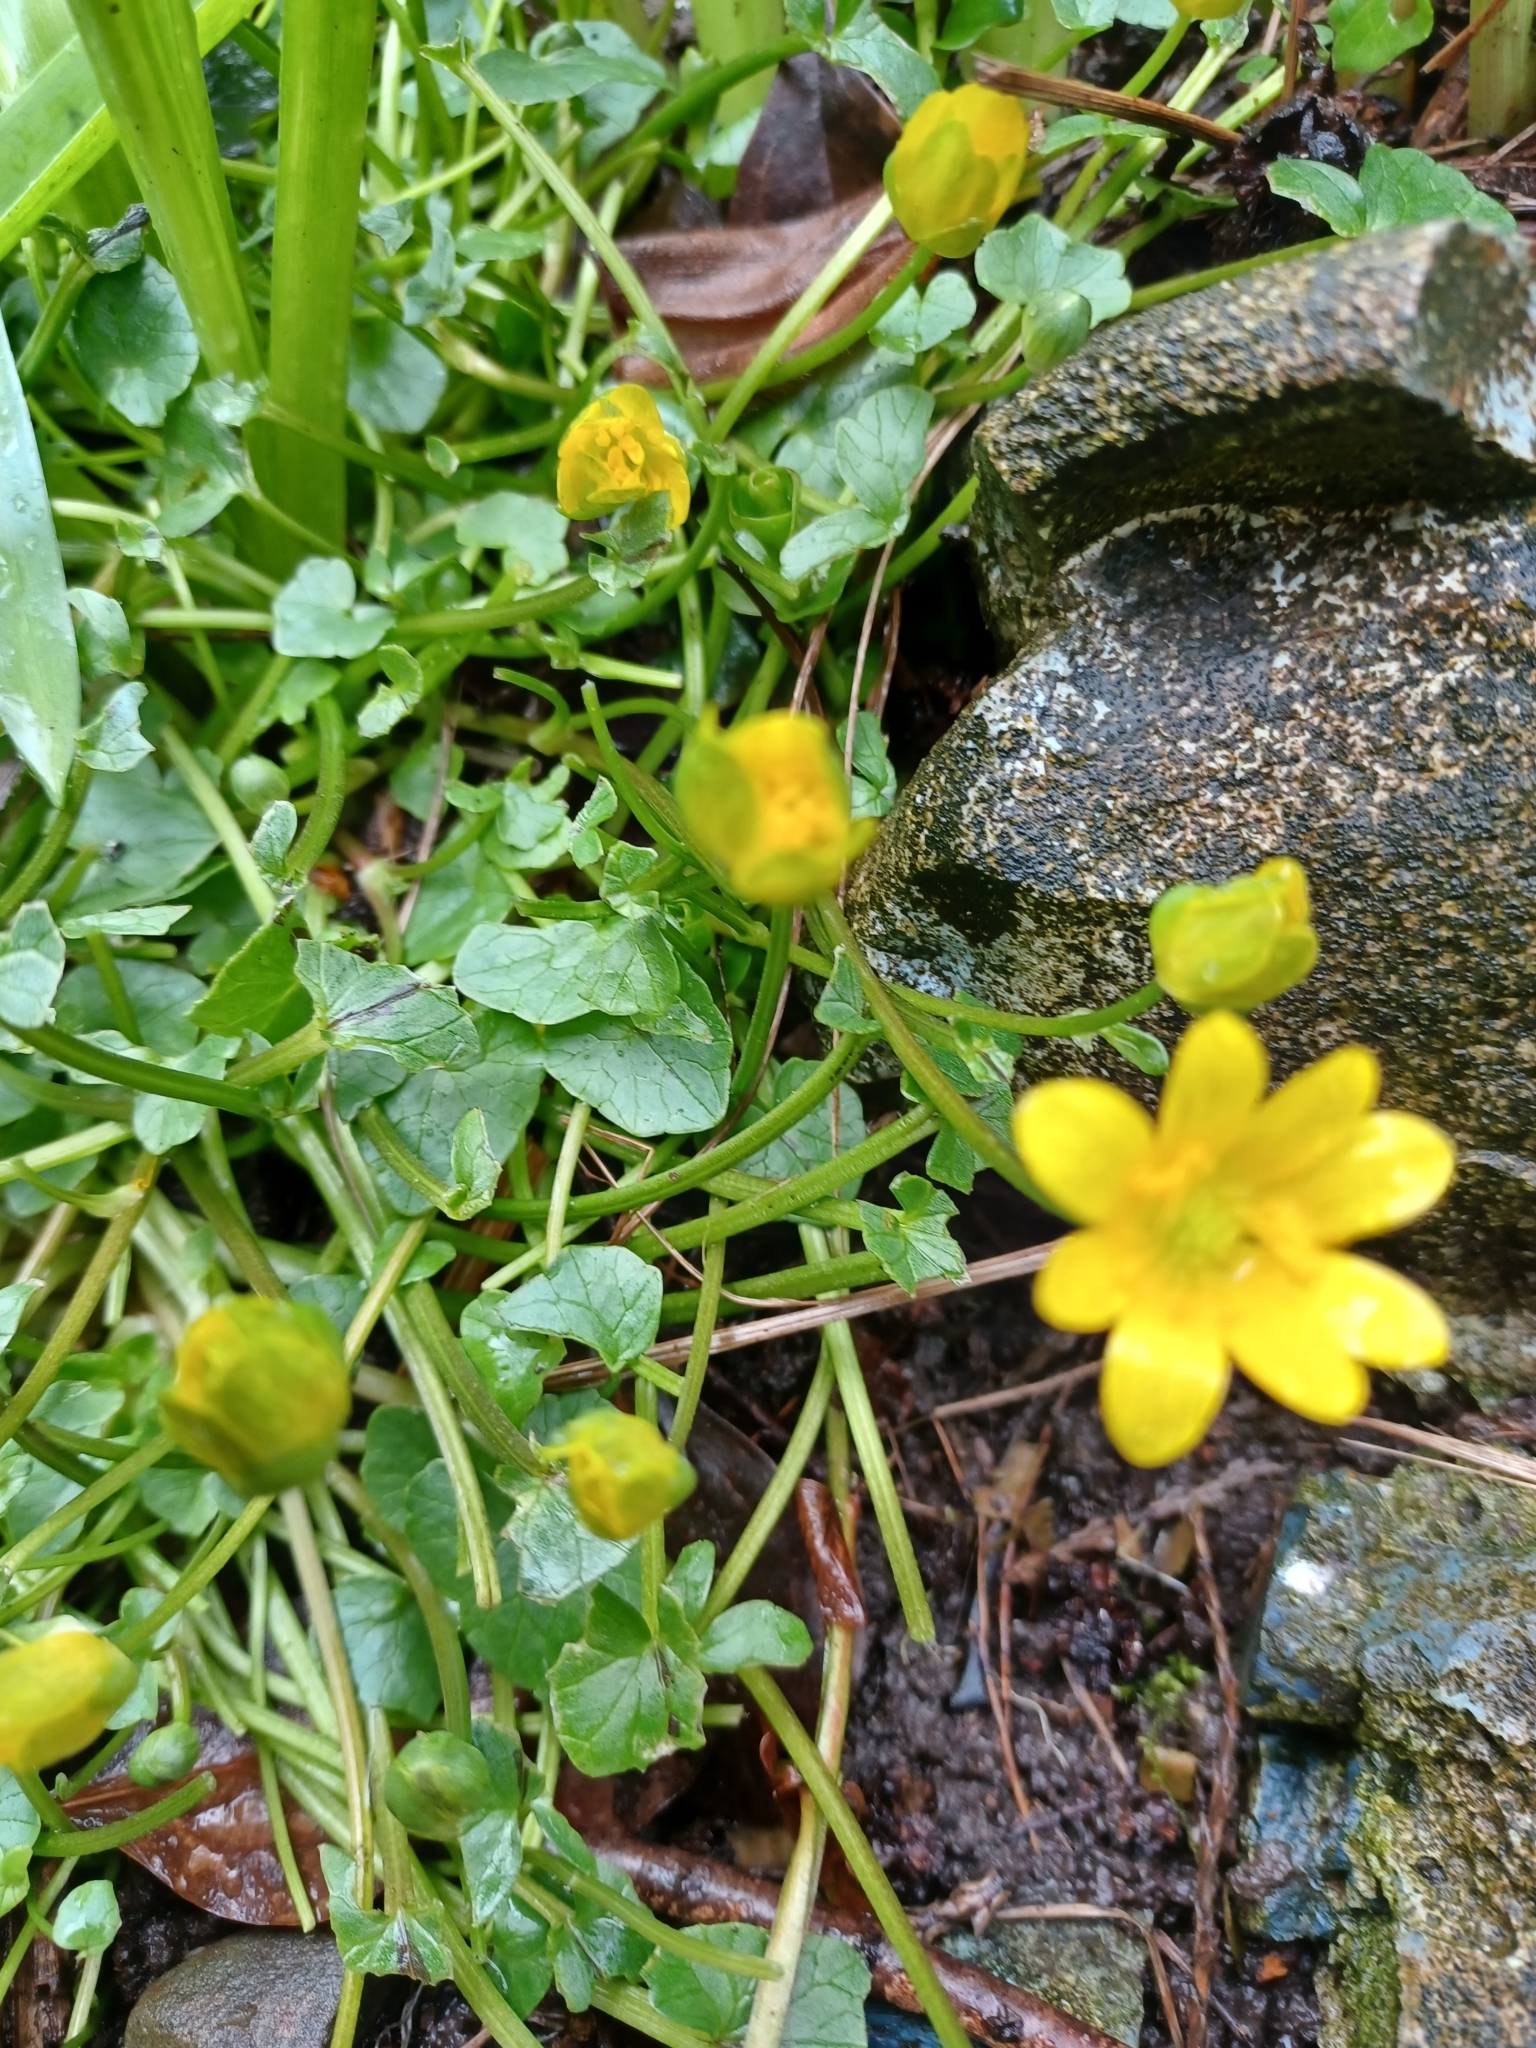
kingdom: Plantae
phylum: Tracheophyta
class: Magnoliopsida
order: Ranunculales
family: Ranunculaceae
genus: Ficaria
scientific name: Ficaria verna
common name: Lesser celandine
